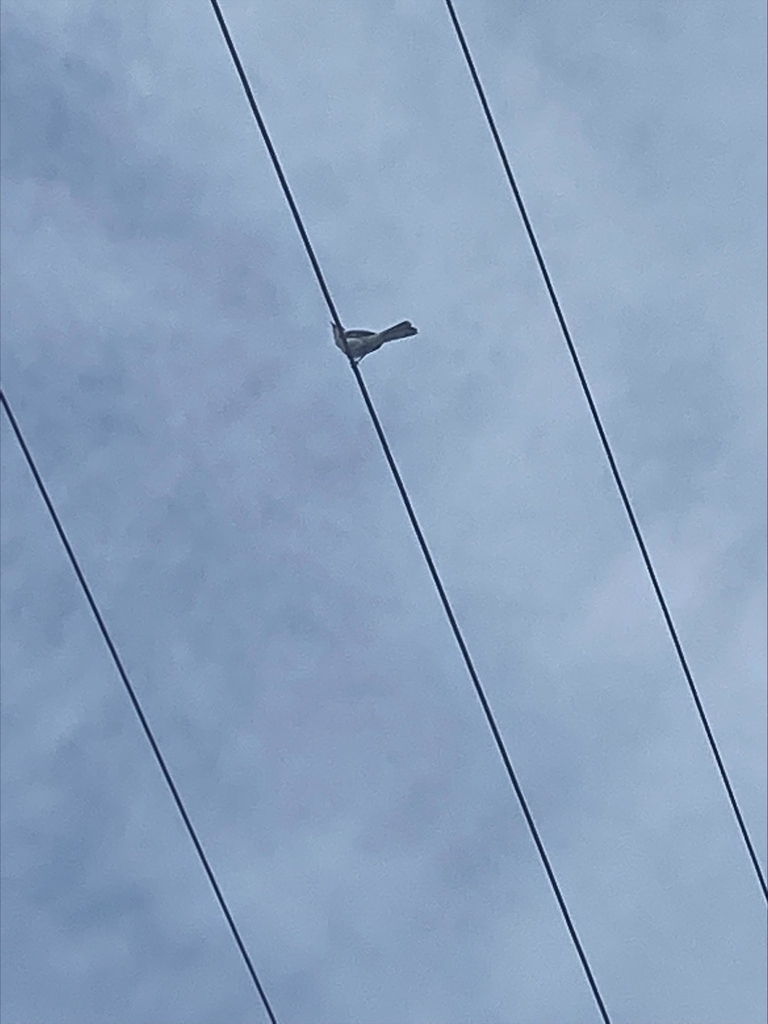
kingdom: Animalia
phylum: Chordata
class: Aves
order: Passeriformes
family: Mimidae
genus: Mimus
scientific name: Mimus polyglottos
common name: Northern mockingbird
